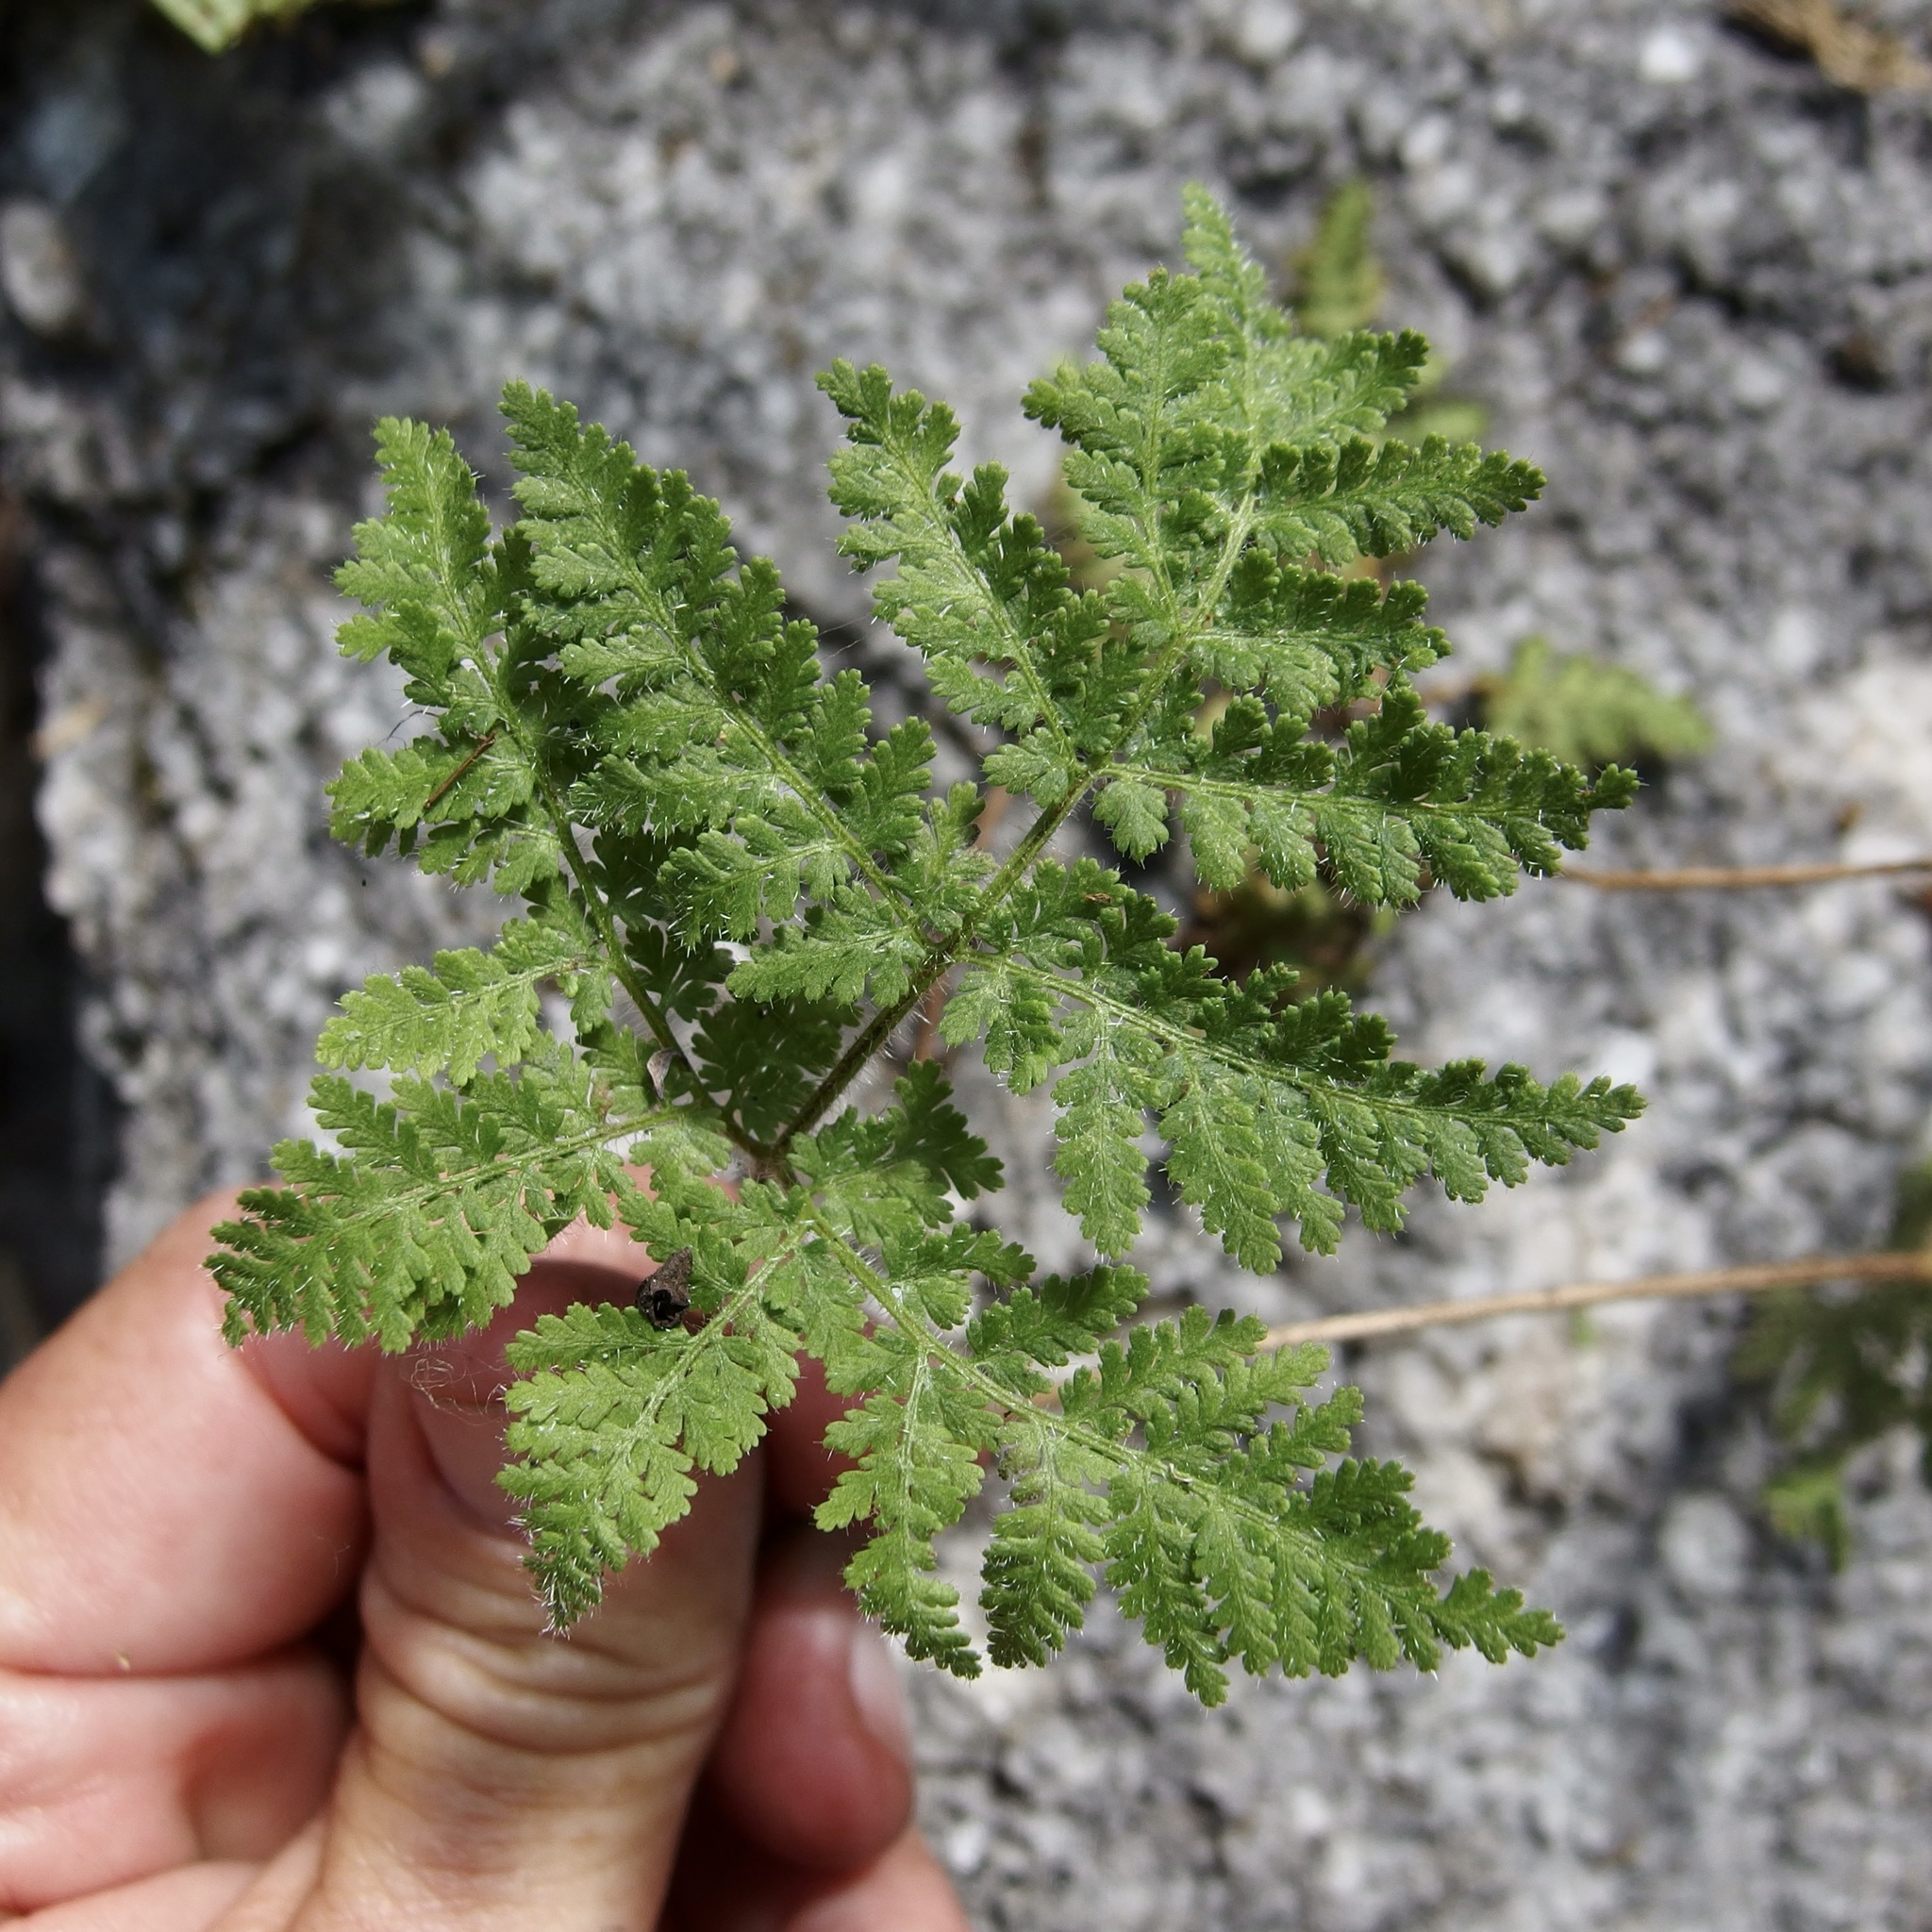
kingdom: Plantae
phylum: Tracheophyta
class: Polypodiopsida
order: Polypodiales
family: Pteridaceae
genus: Cheilanthes
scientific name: Cheilanthes leucopoda
